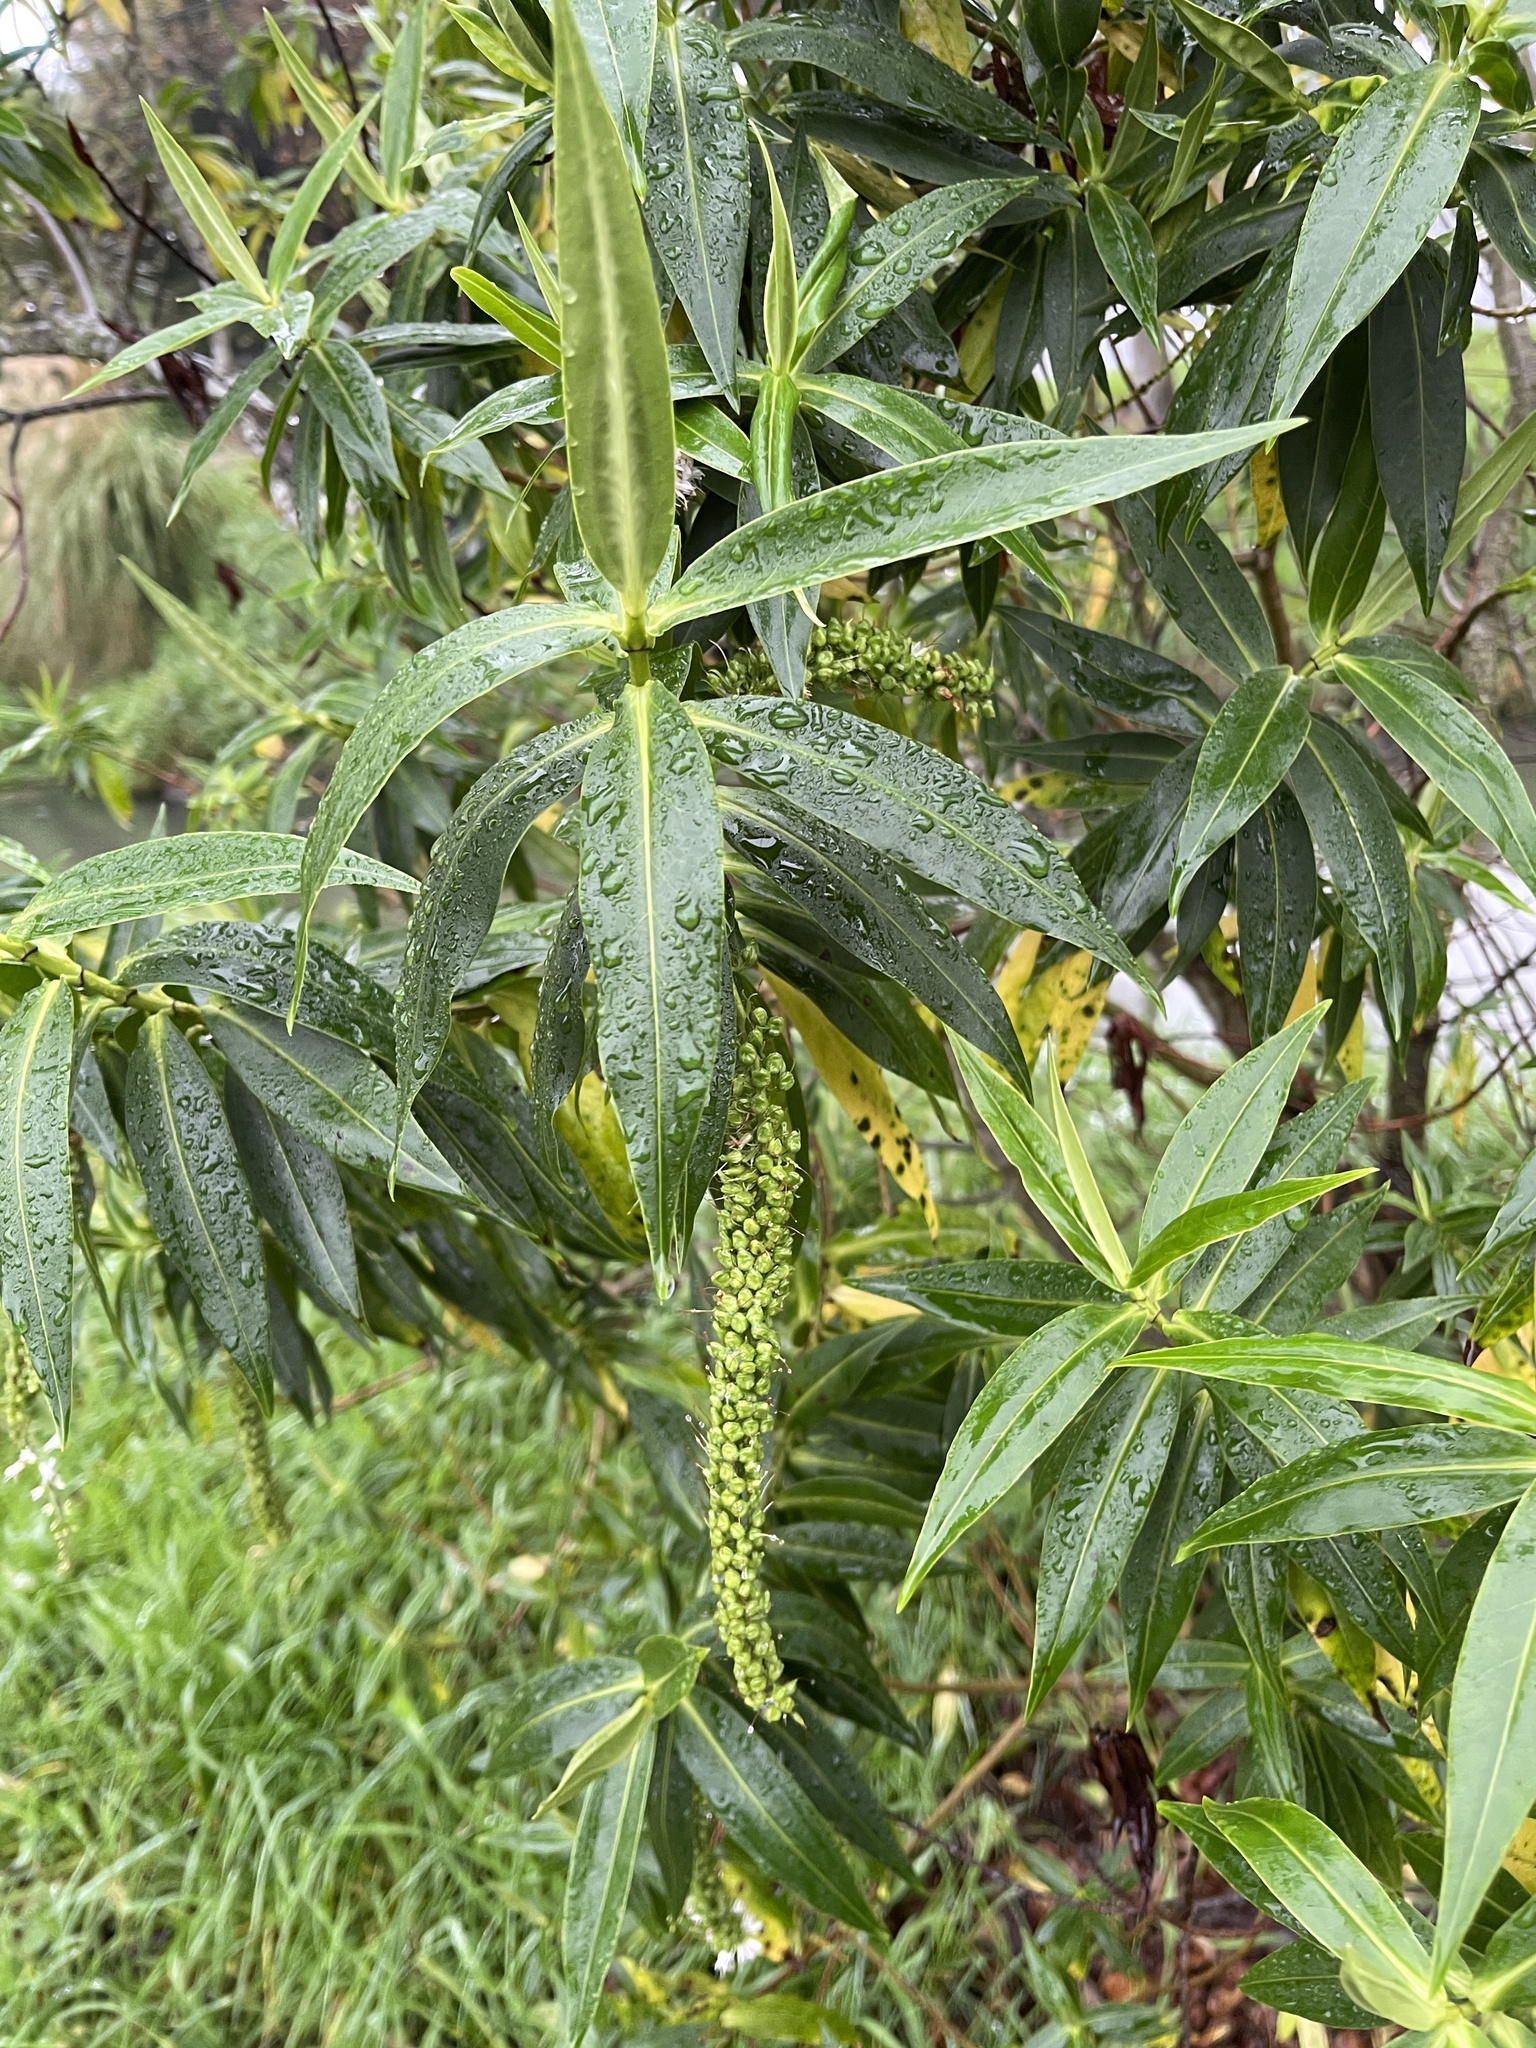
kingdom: Plantae
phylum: Tracheophyta
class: Magnoliopsida
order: Lamiales
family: Plantaginaceae
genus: Veronica
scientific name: Veronica salicifolia
